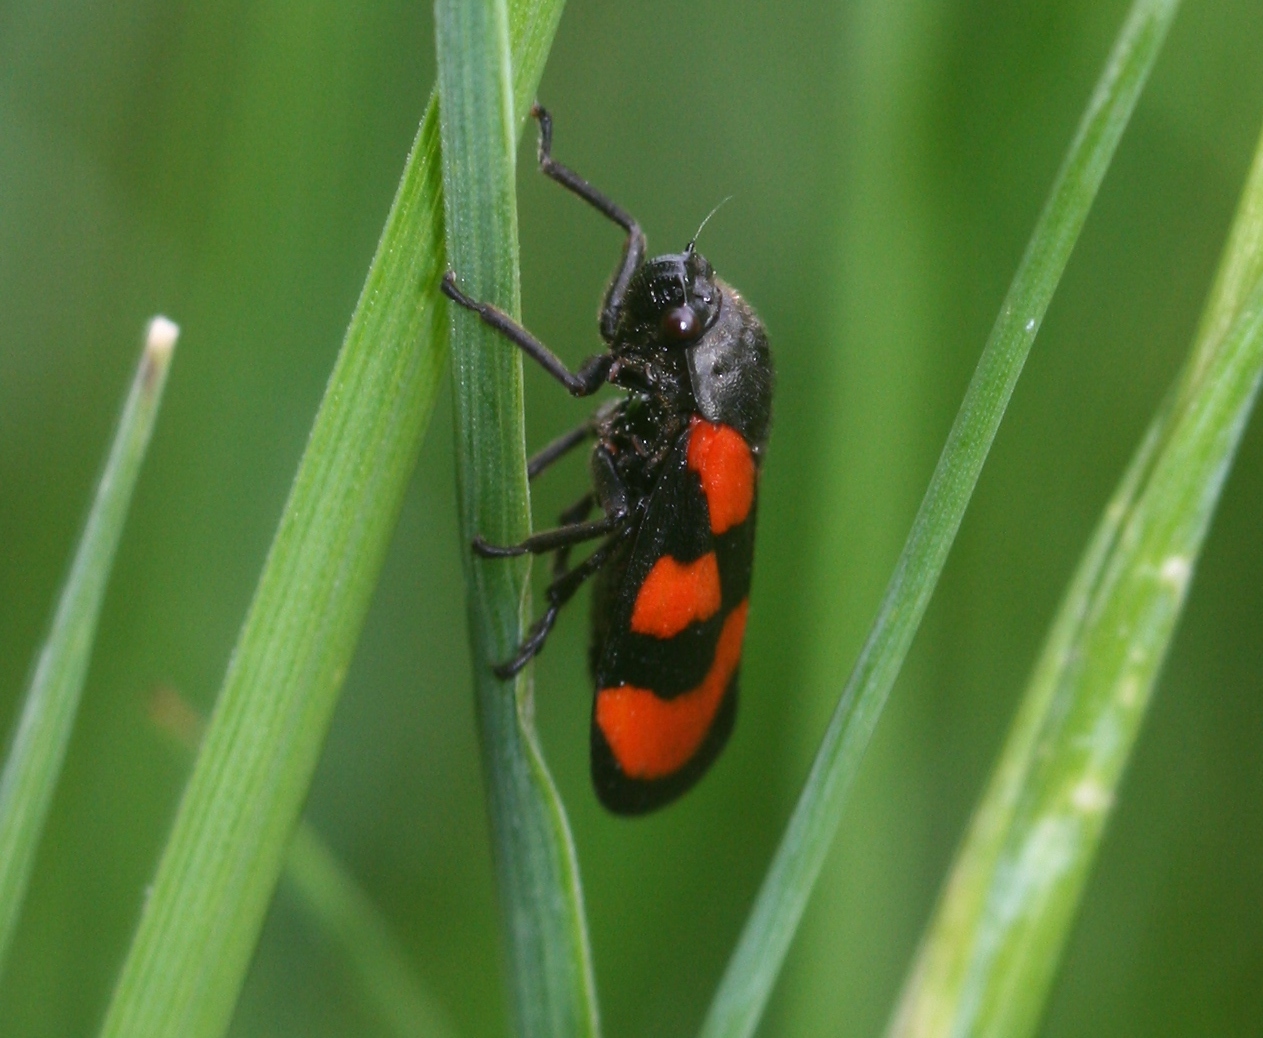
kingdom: Animalia
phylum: Arthropoda
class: Insecta
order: Hemiptera
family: Cercopidae
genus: Cercopis
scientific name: Cercopis vulnerata
